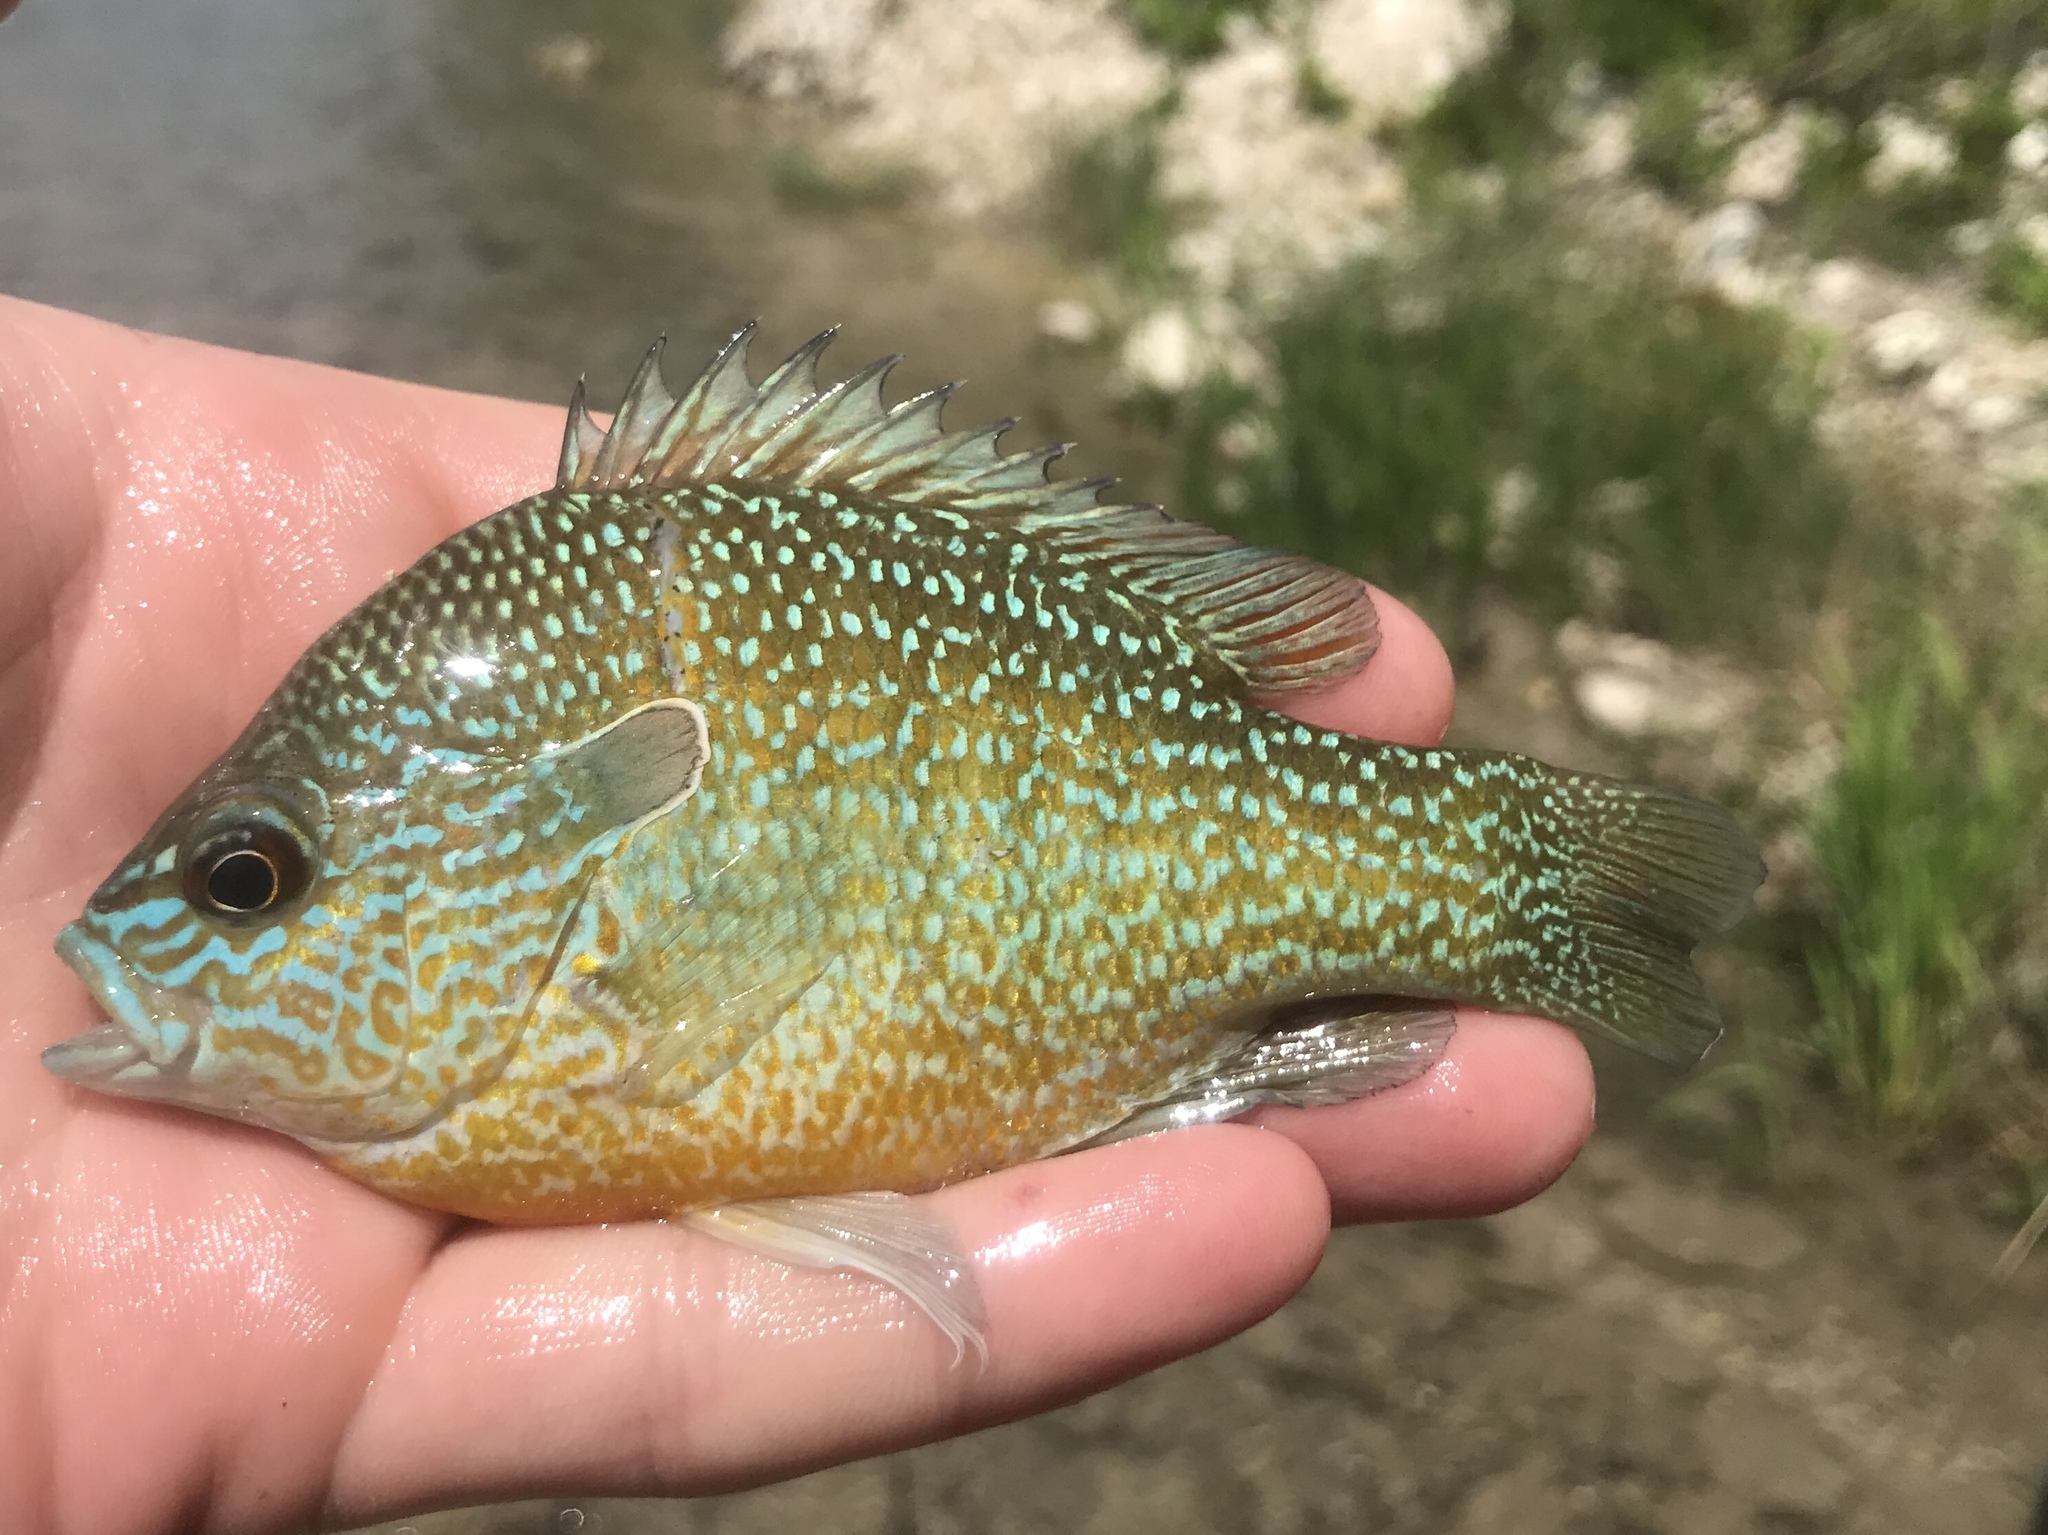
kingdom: Animalia
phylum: Chordata
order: Perciformes
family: Centrarchidae
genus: Lepomis
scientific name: Lepomis megalotis
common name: Longear sunfish
